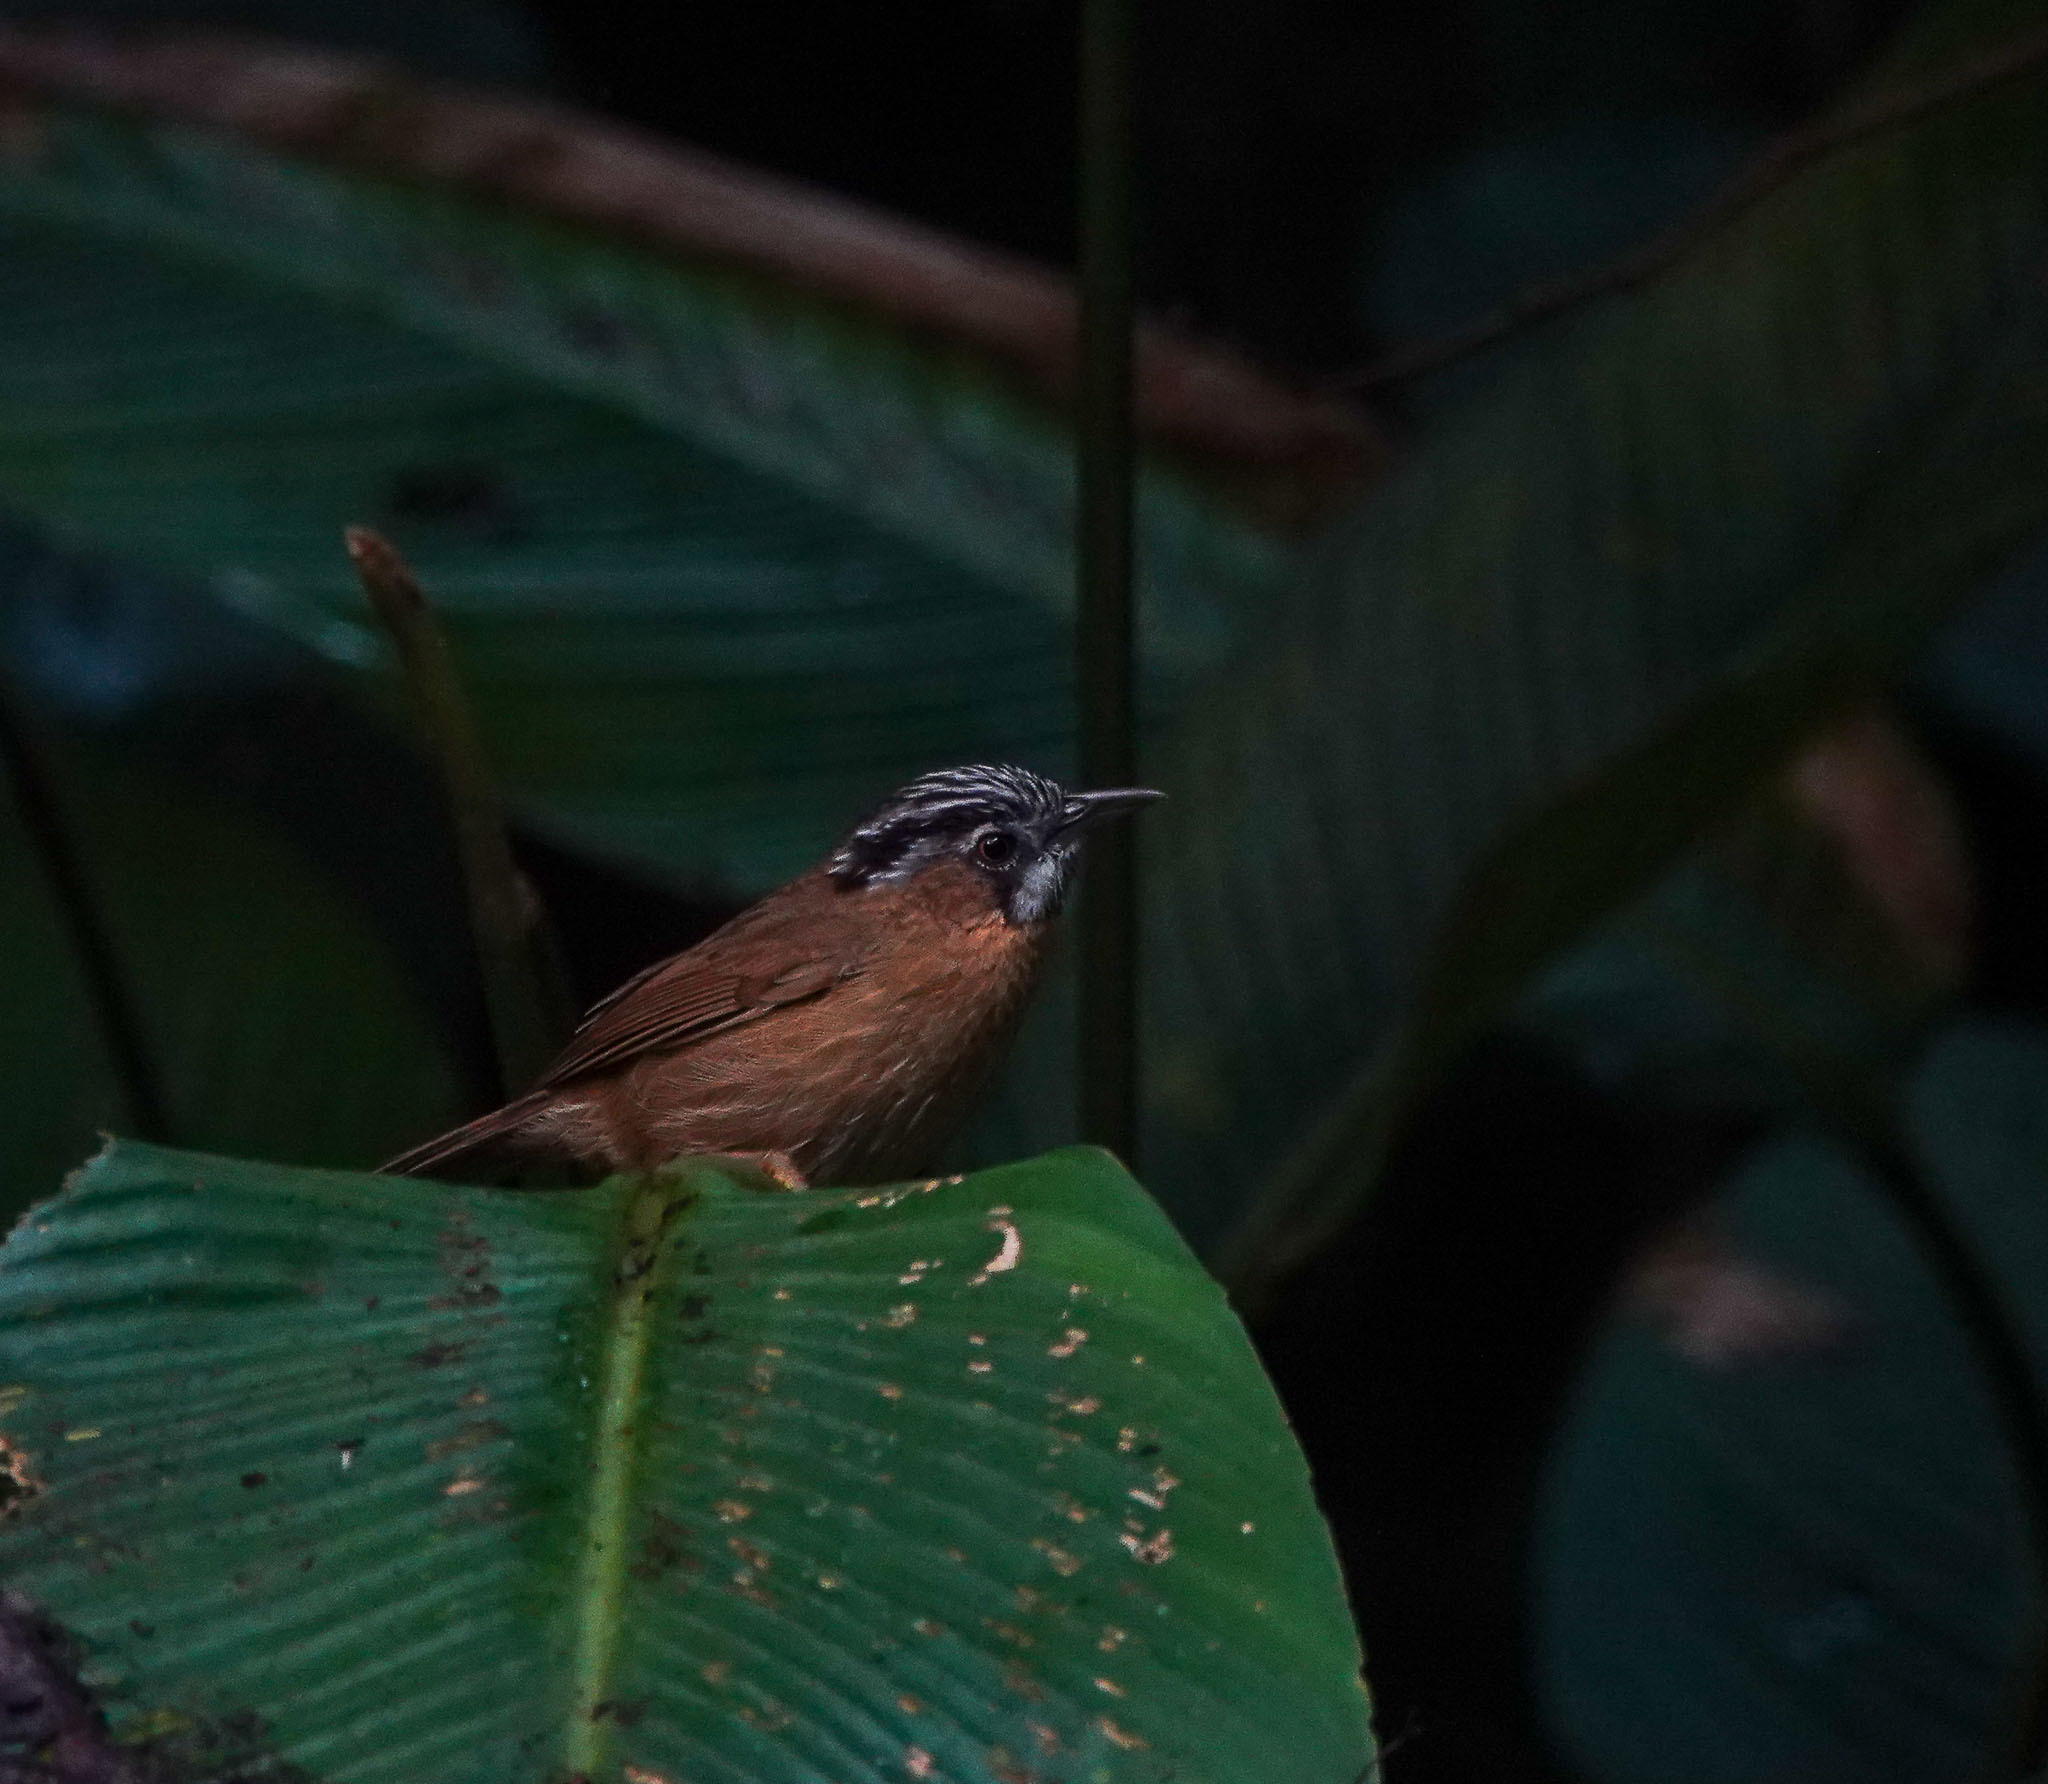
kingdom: Animalia
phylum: Chordata
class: Aves
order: Passeriformes
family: Timaliidae
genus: Stachyris
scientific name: Stachyris nigriceps
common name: Grey-throated babbler
